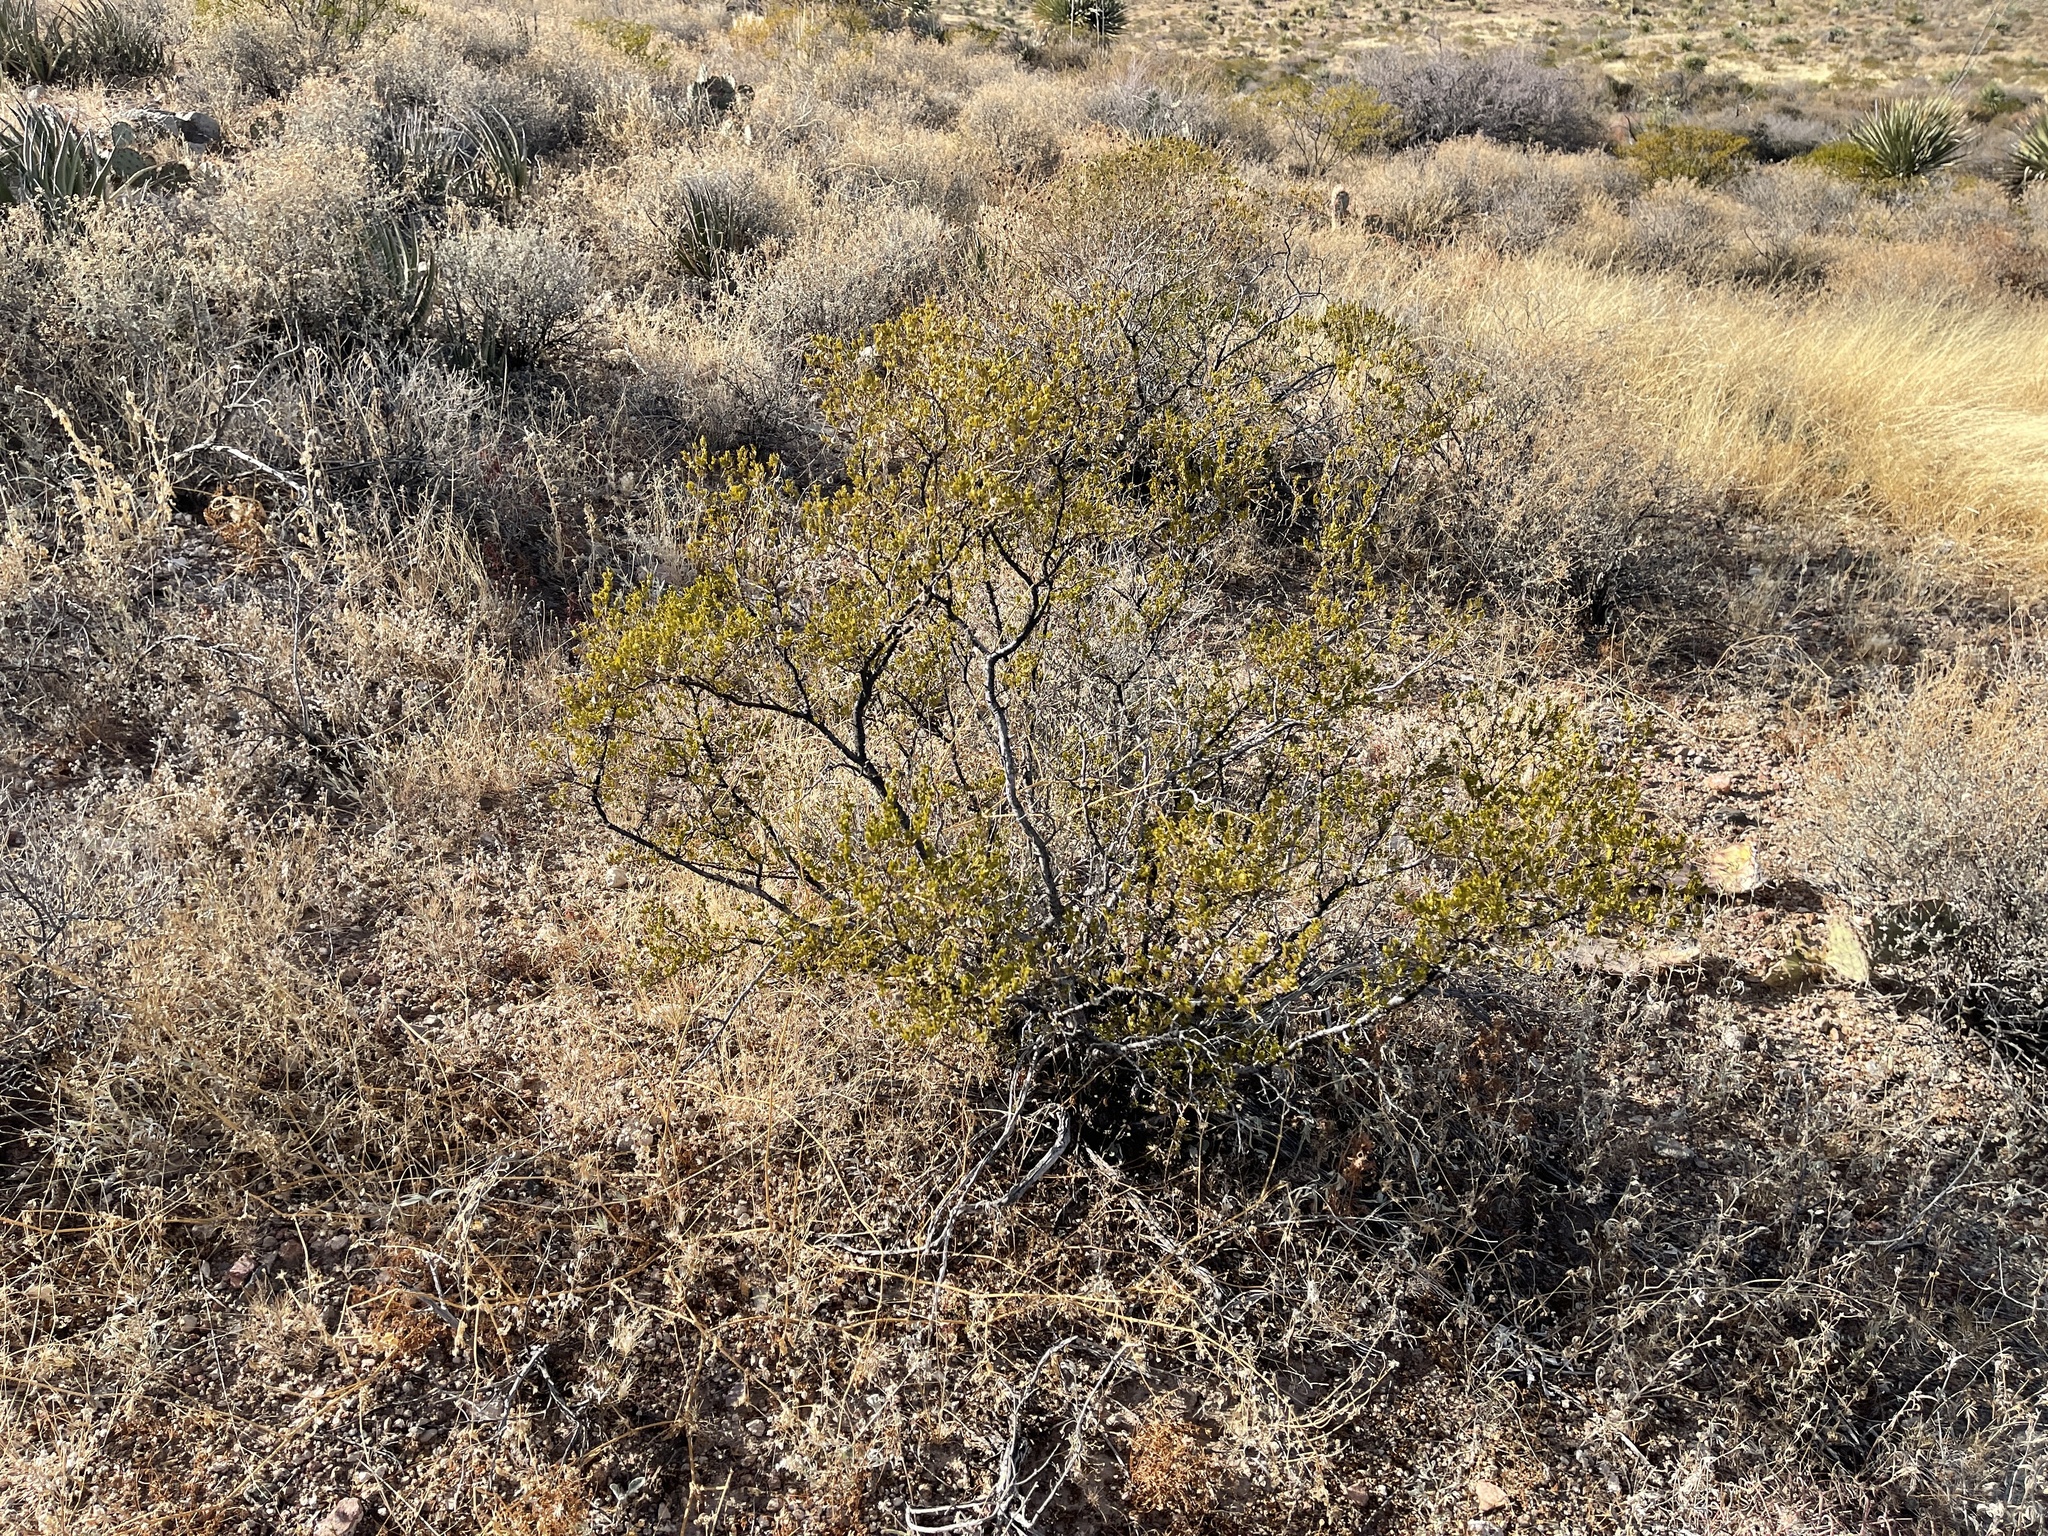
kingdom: Plantae
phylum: Tracheophyta
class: Magnoliopsida
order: Zygophyllales
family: Zygophyllaceae
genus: Larrea
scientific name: Larrea tridentata
